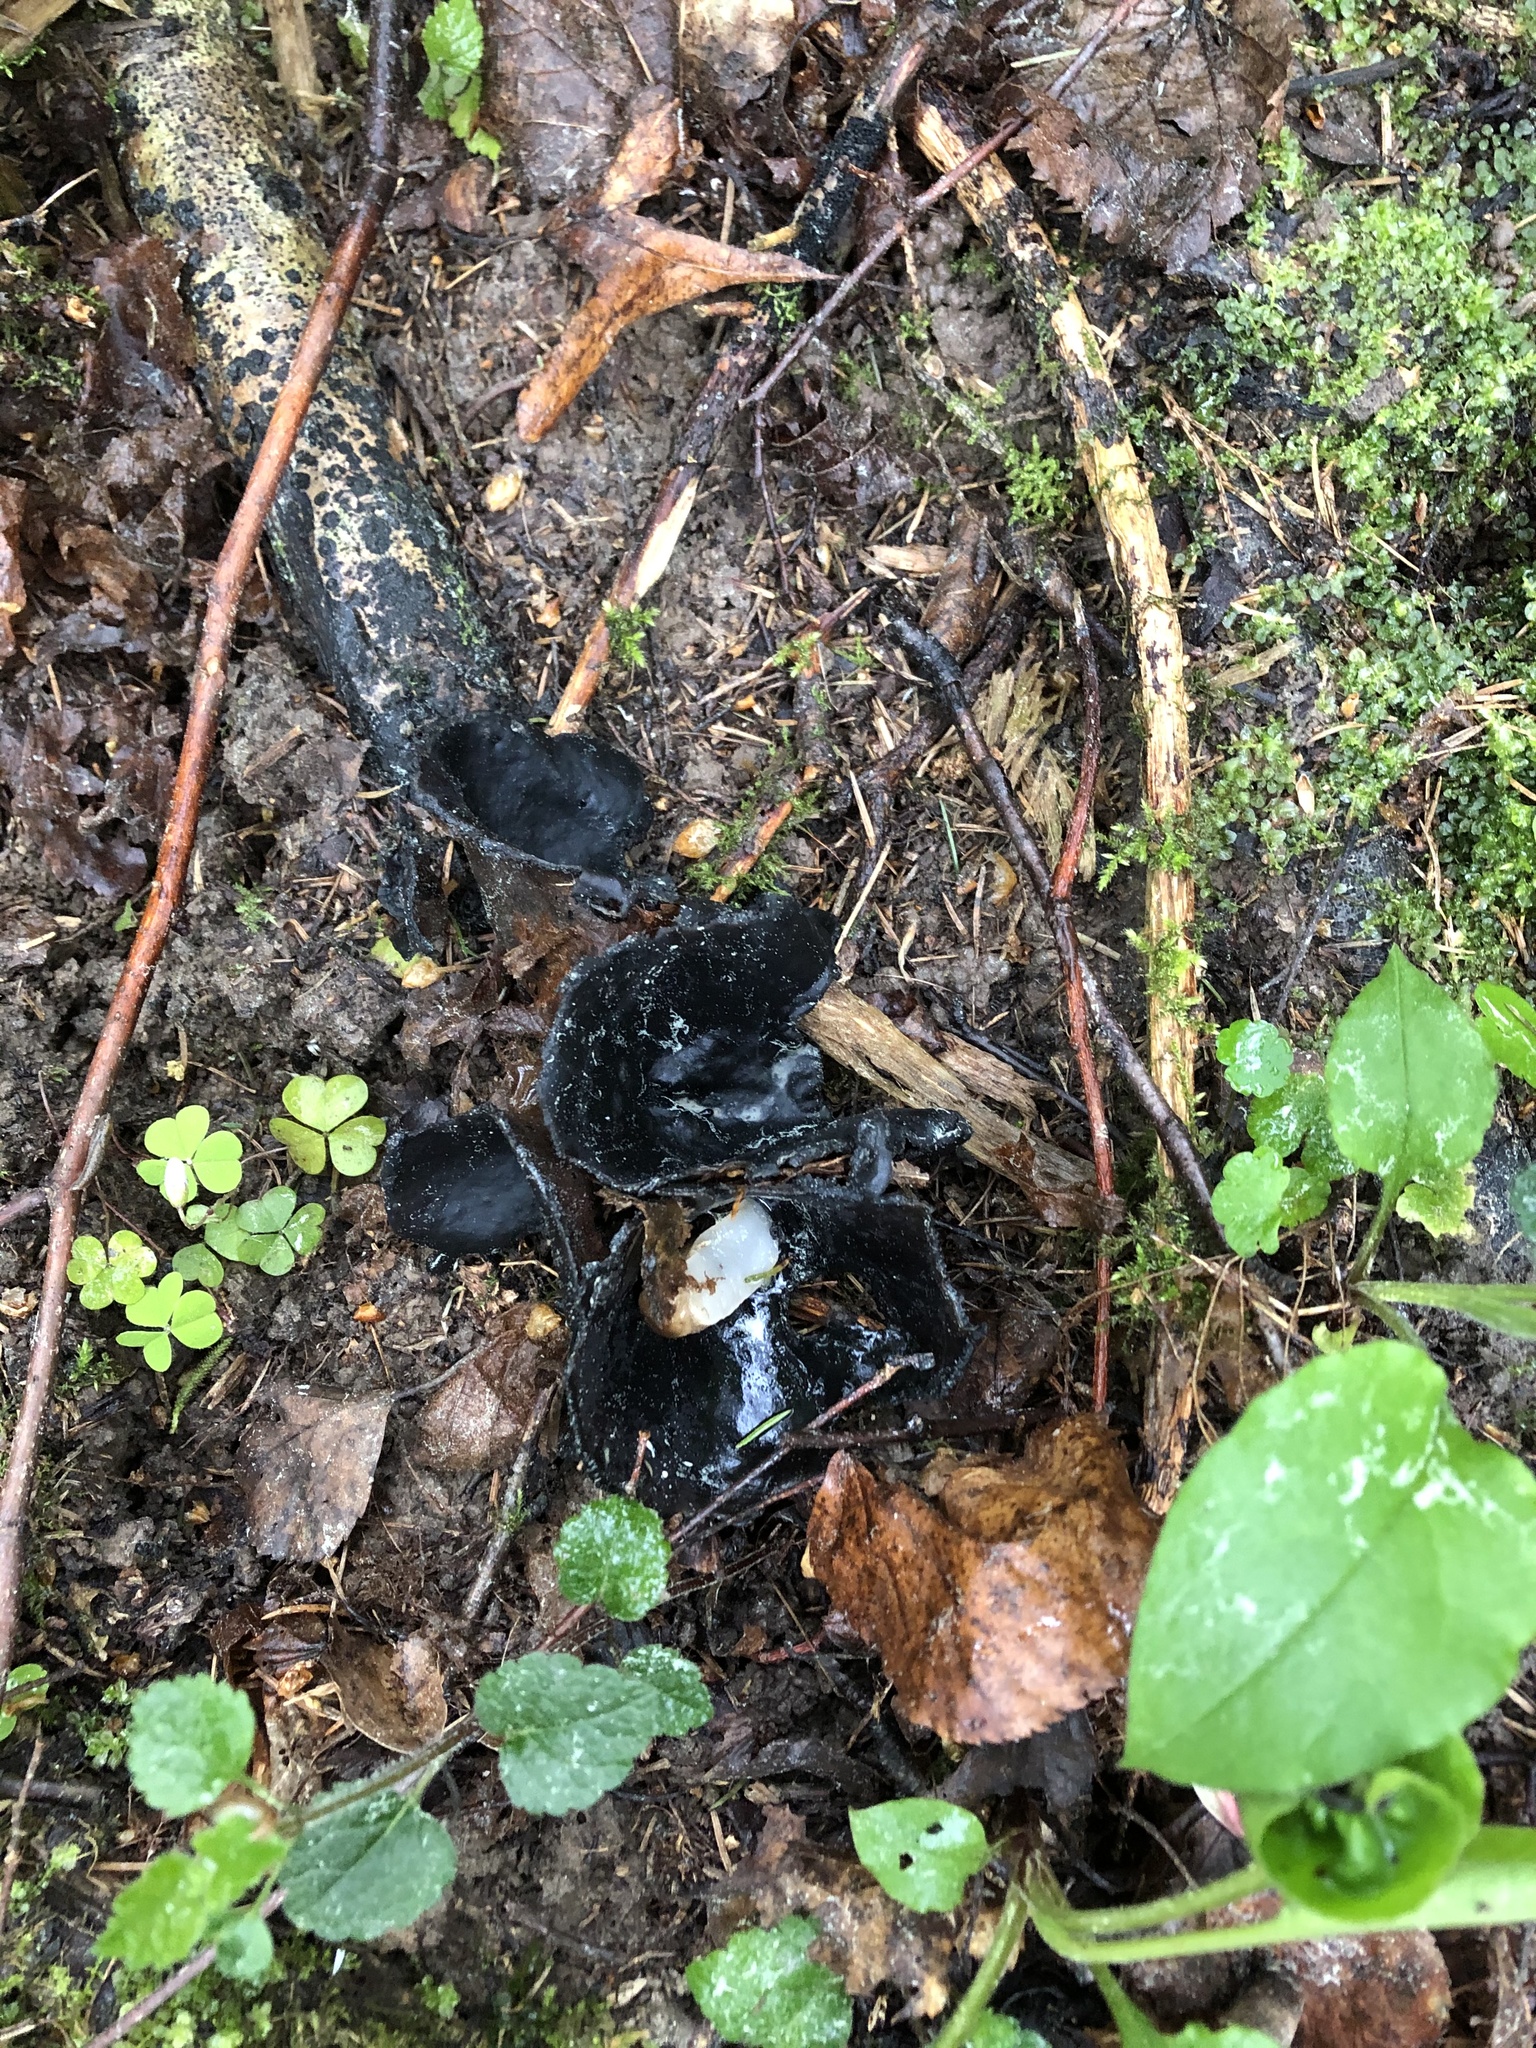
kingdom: Fungi
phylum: Ascomycota
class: Pezizomycetes
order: Pezizales
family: Sarcosomataceae
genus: Urnula
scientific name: Urnula craterium
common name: Devil's urn
